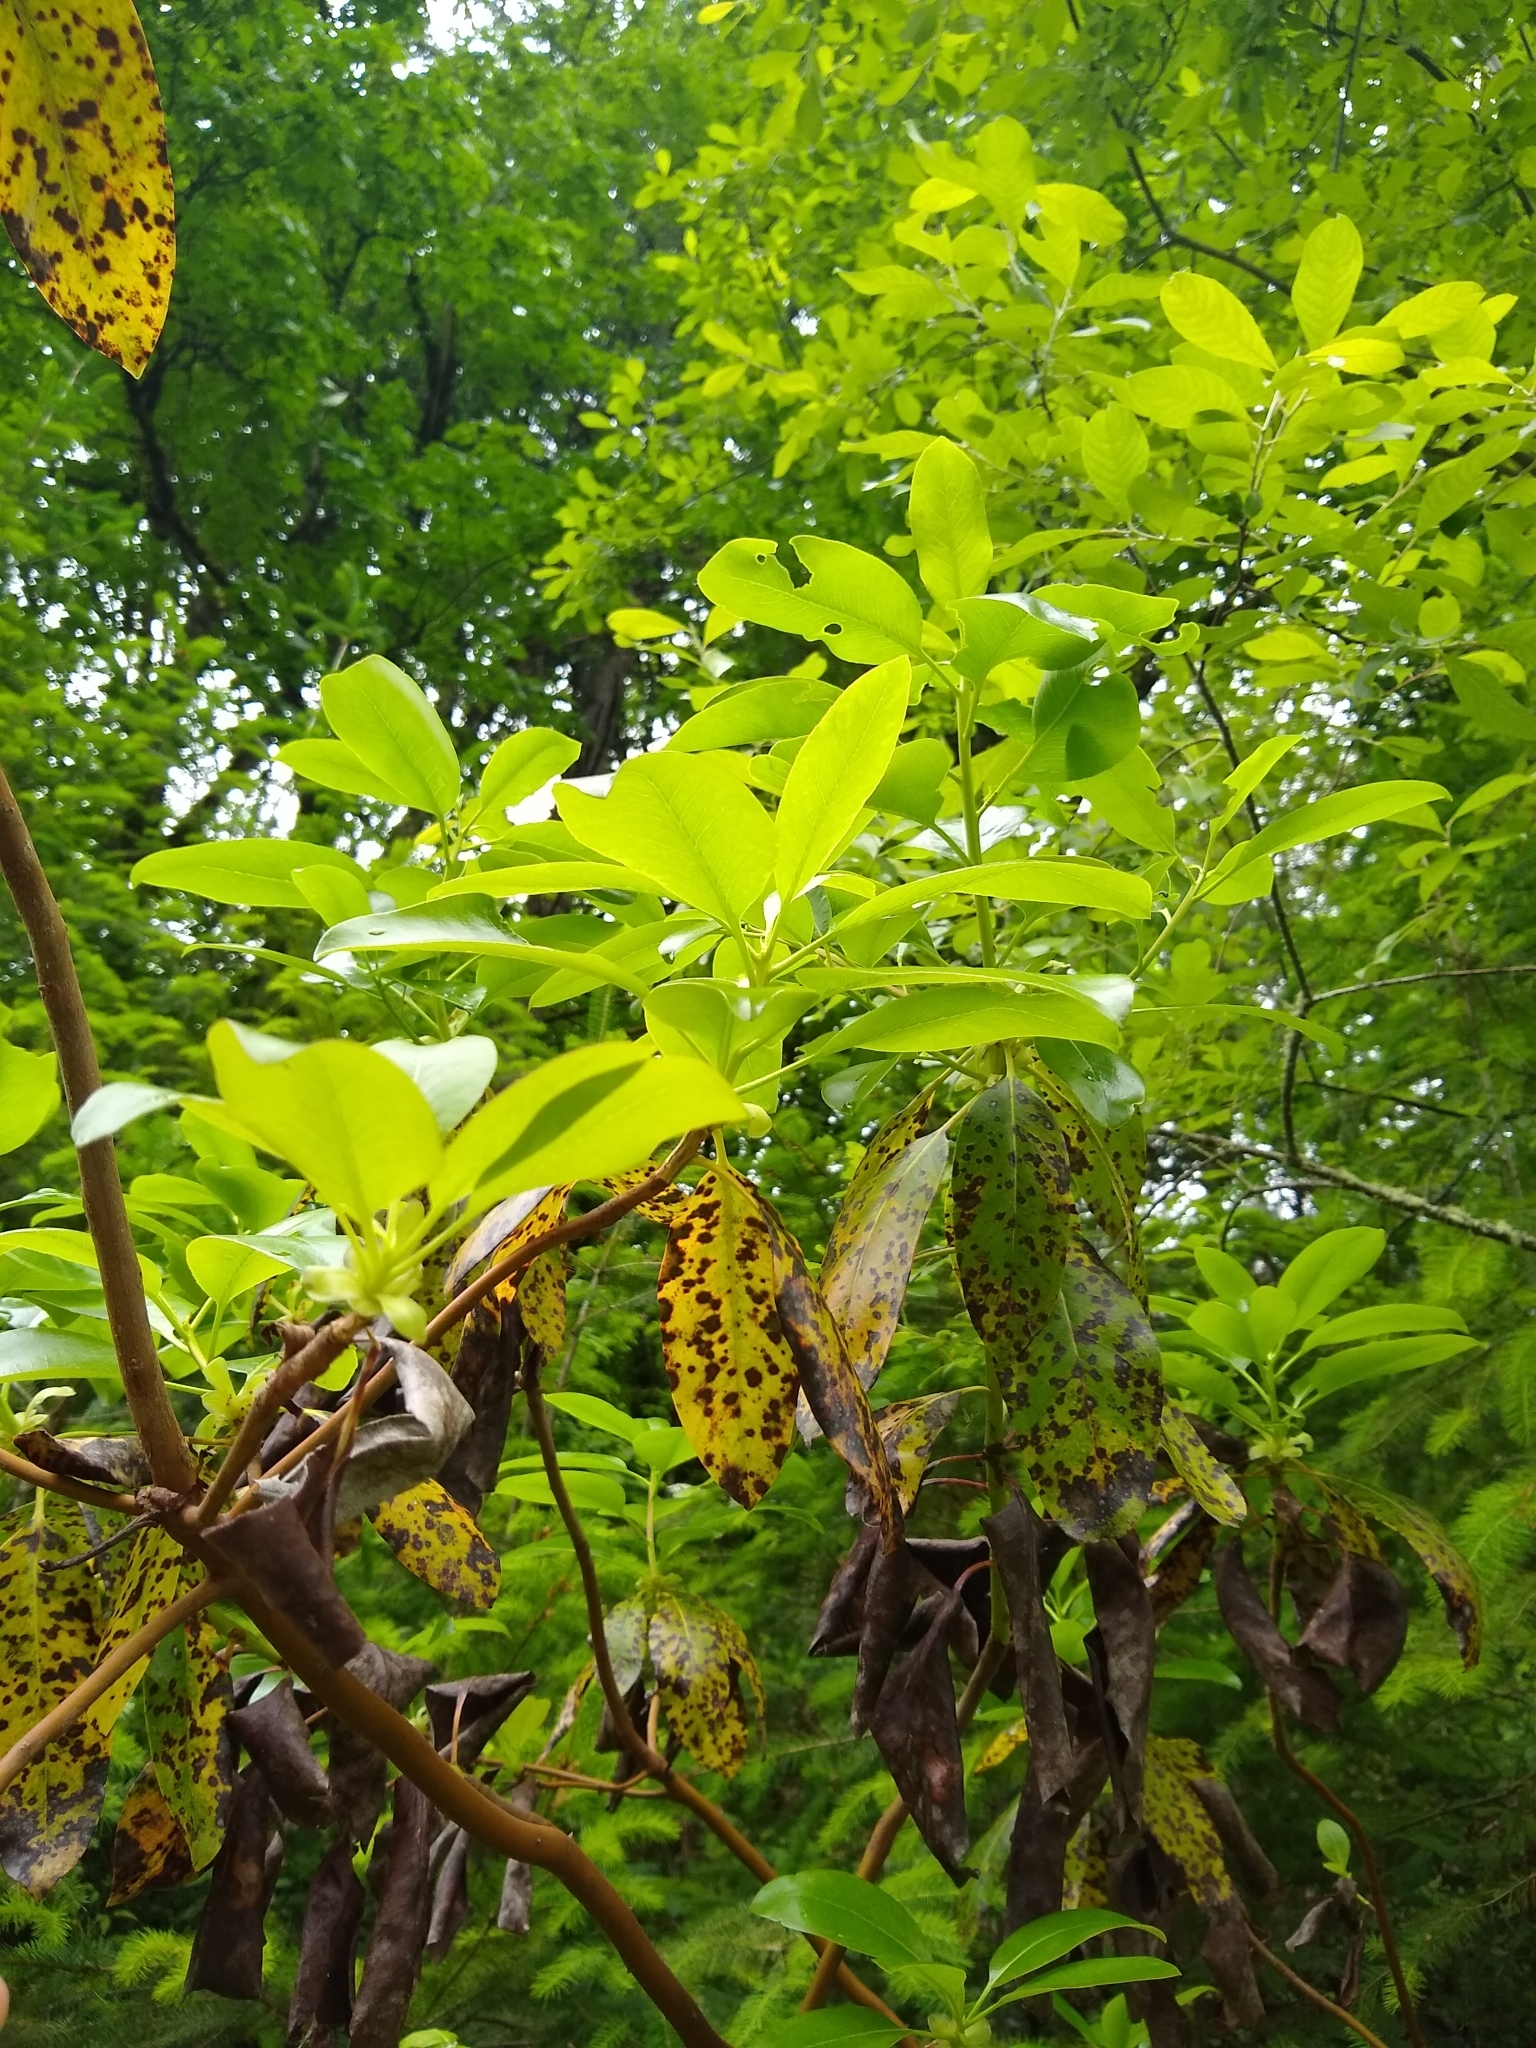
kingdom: Plantae
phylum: Tracheophyta
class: Magnoliopsida
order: Ericales
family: Ericaceae
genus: Arbutus
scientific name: Arbutus menziesii
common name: Pacific madrone
